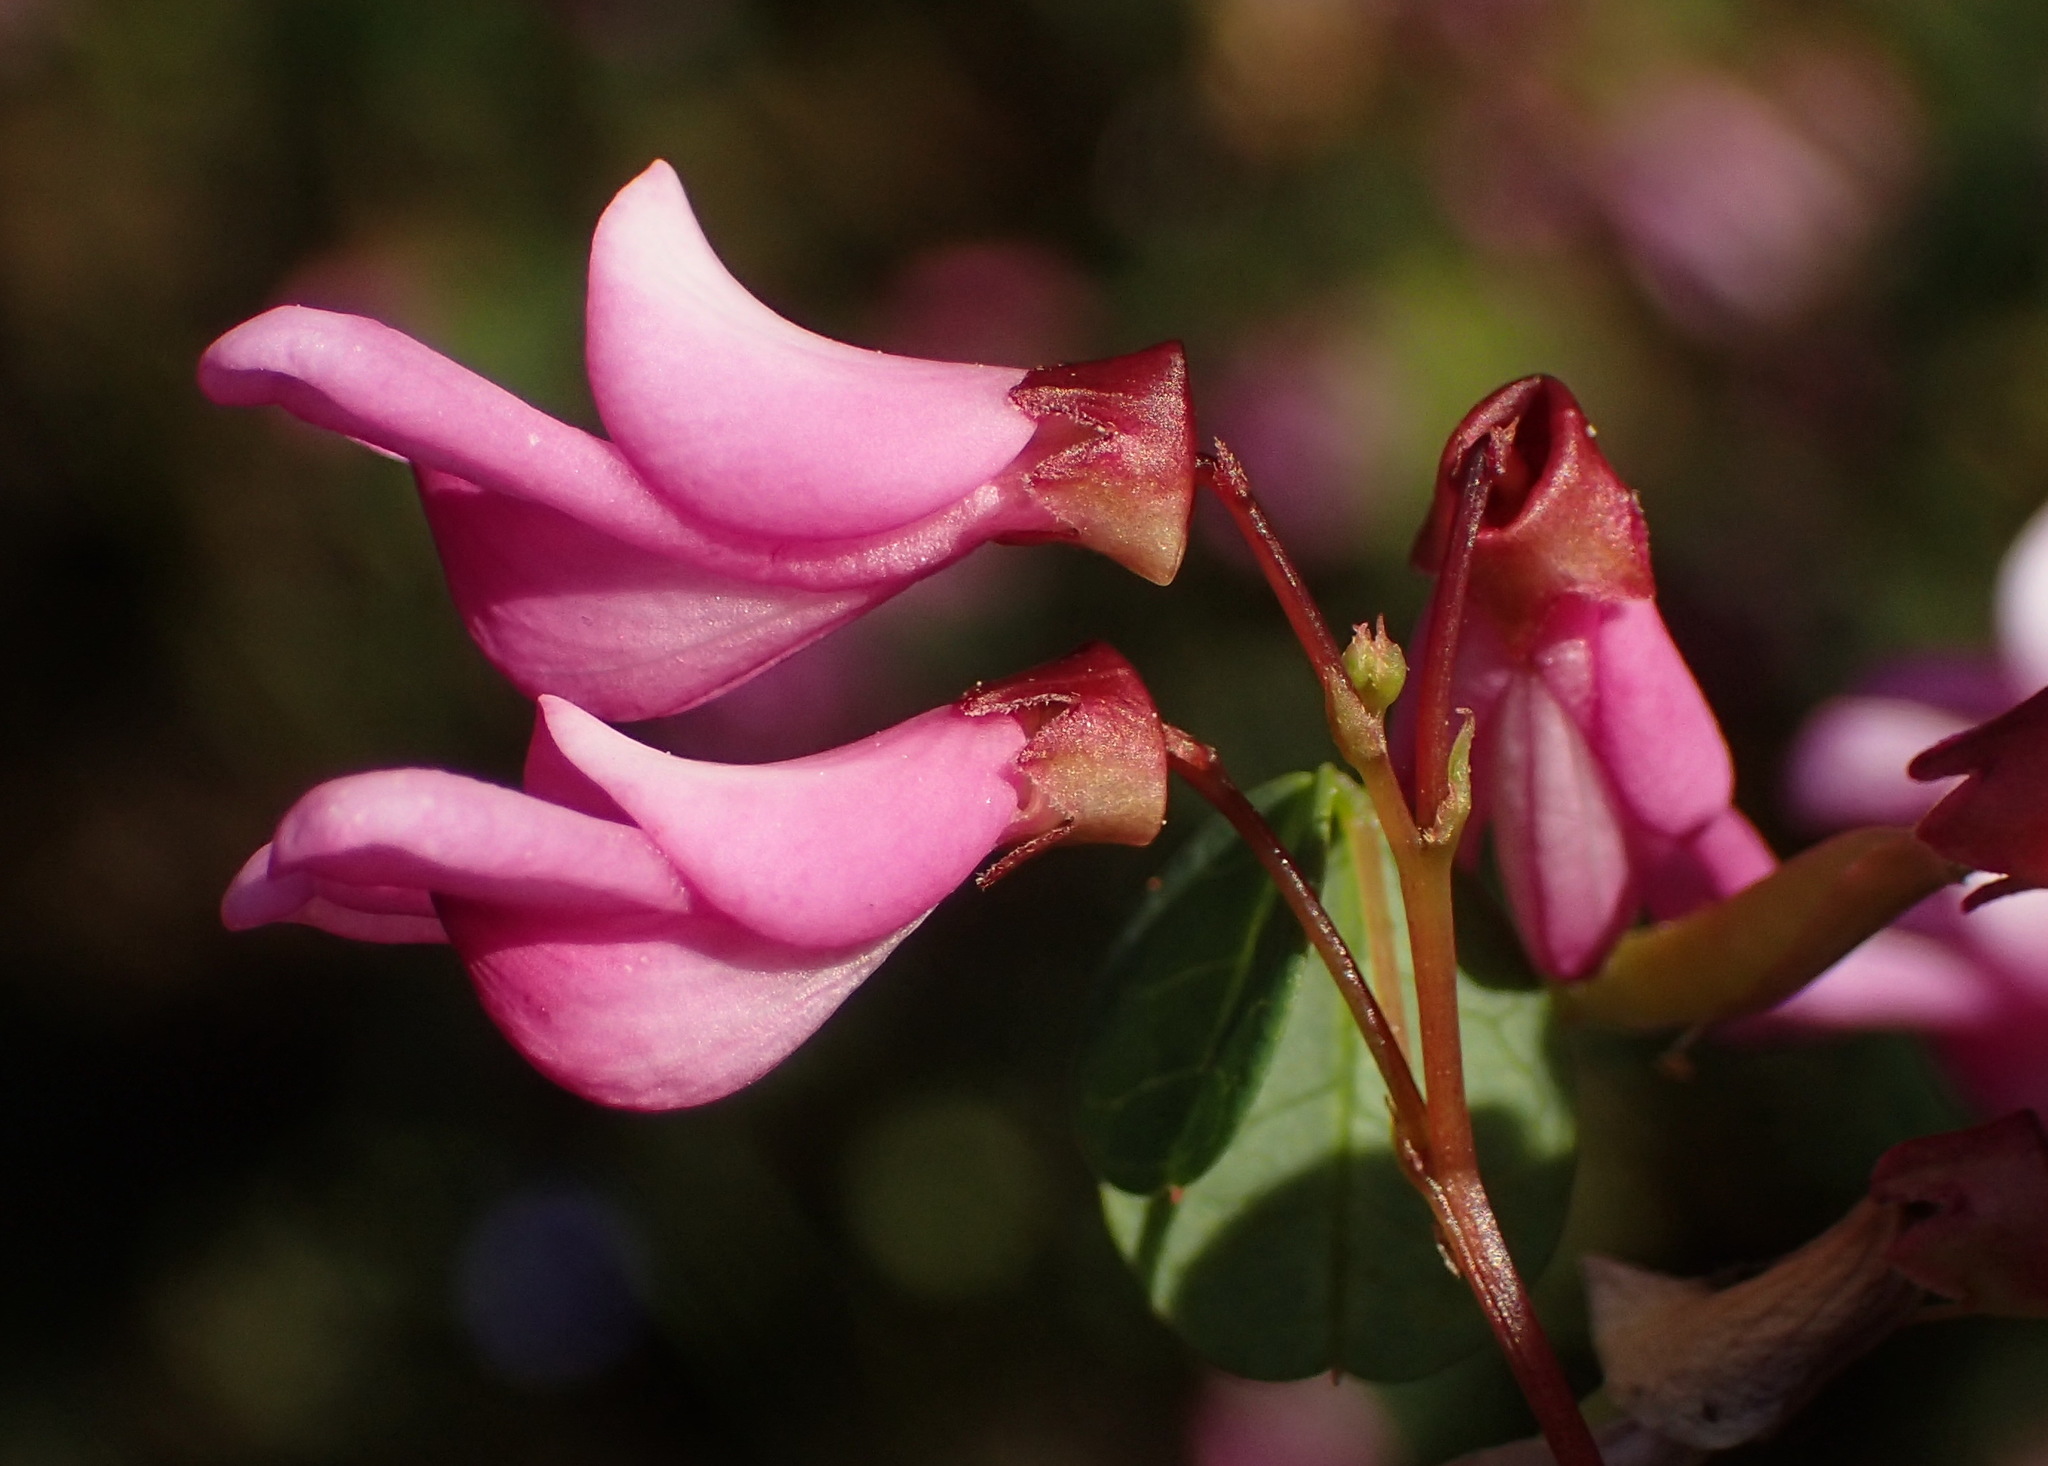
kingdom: Plantae
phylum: Tracheophyta
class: Magnoliopsida
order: Fabales
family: Fabaceae
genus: Hypocalyptus
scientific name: Hypocalyptus oxalidifolius
